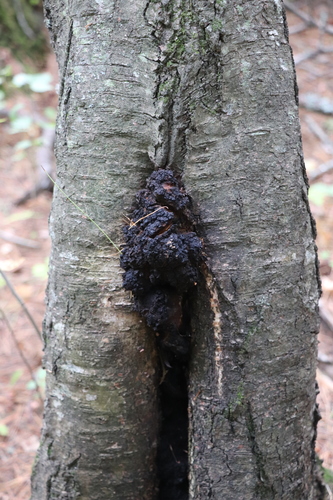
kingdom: Fungi
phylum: Basidiomycota
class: Agaricomycetes
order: Hymenochaetales
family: Hymenochaetaceae
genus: Inonotus
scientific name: Inonotus obliquus
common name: Chaga
